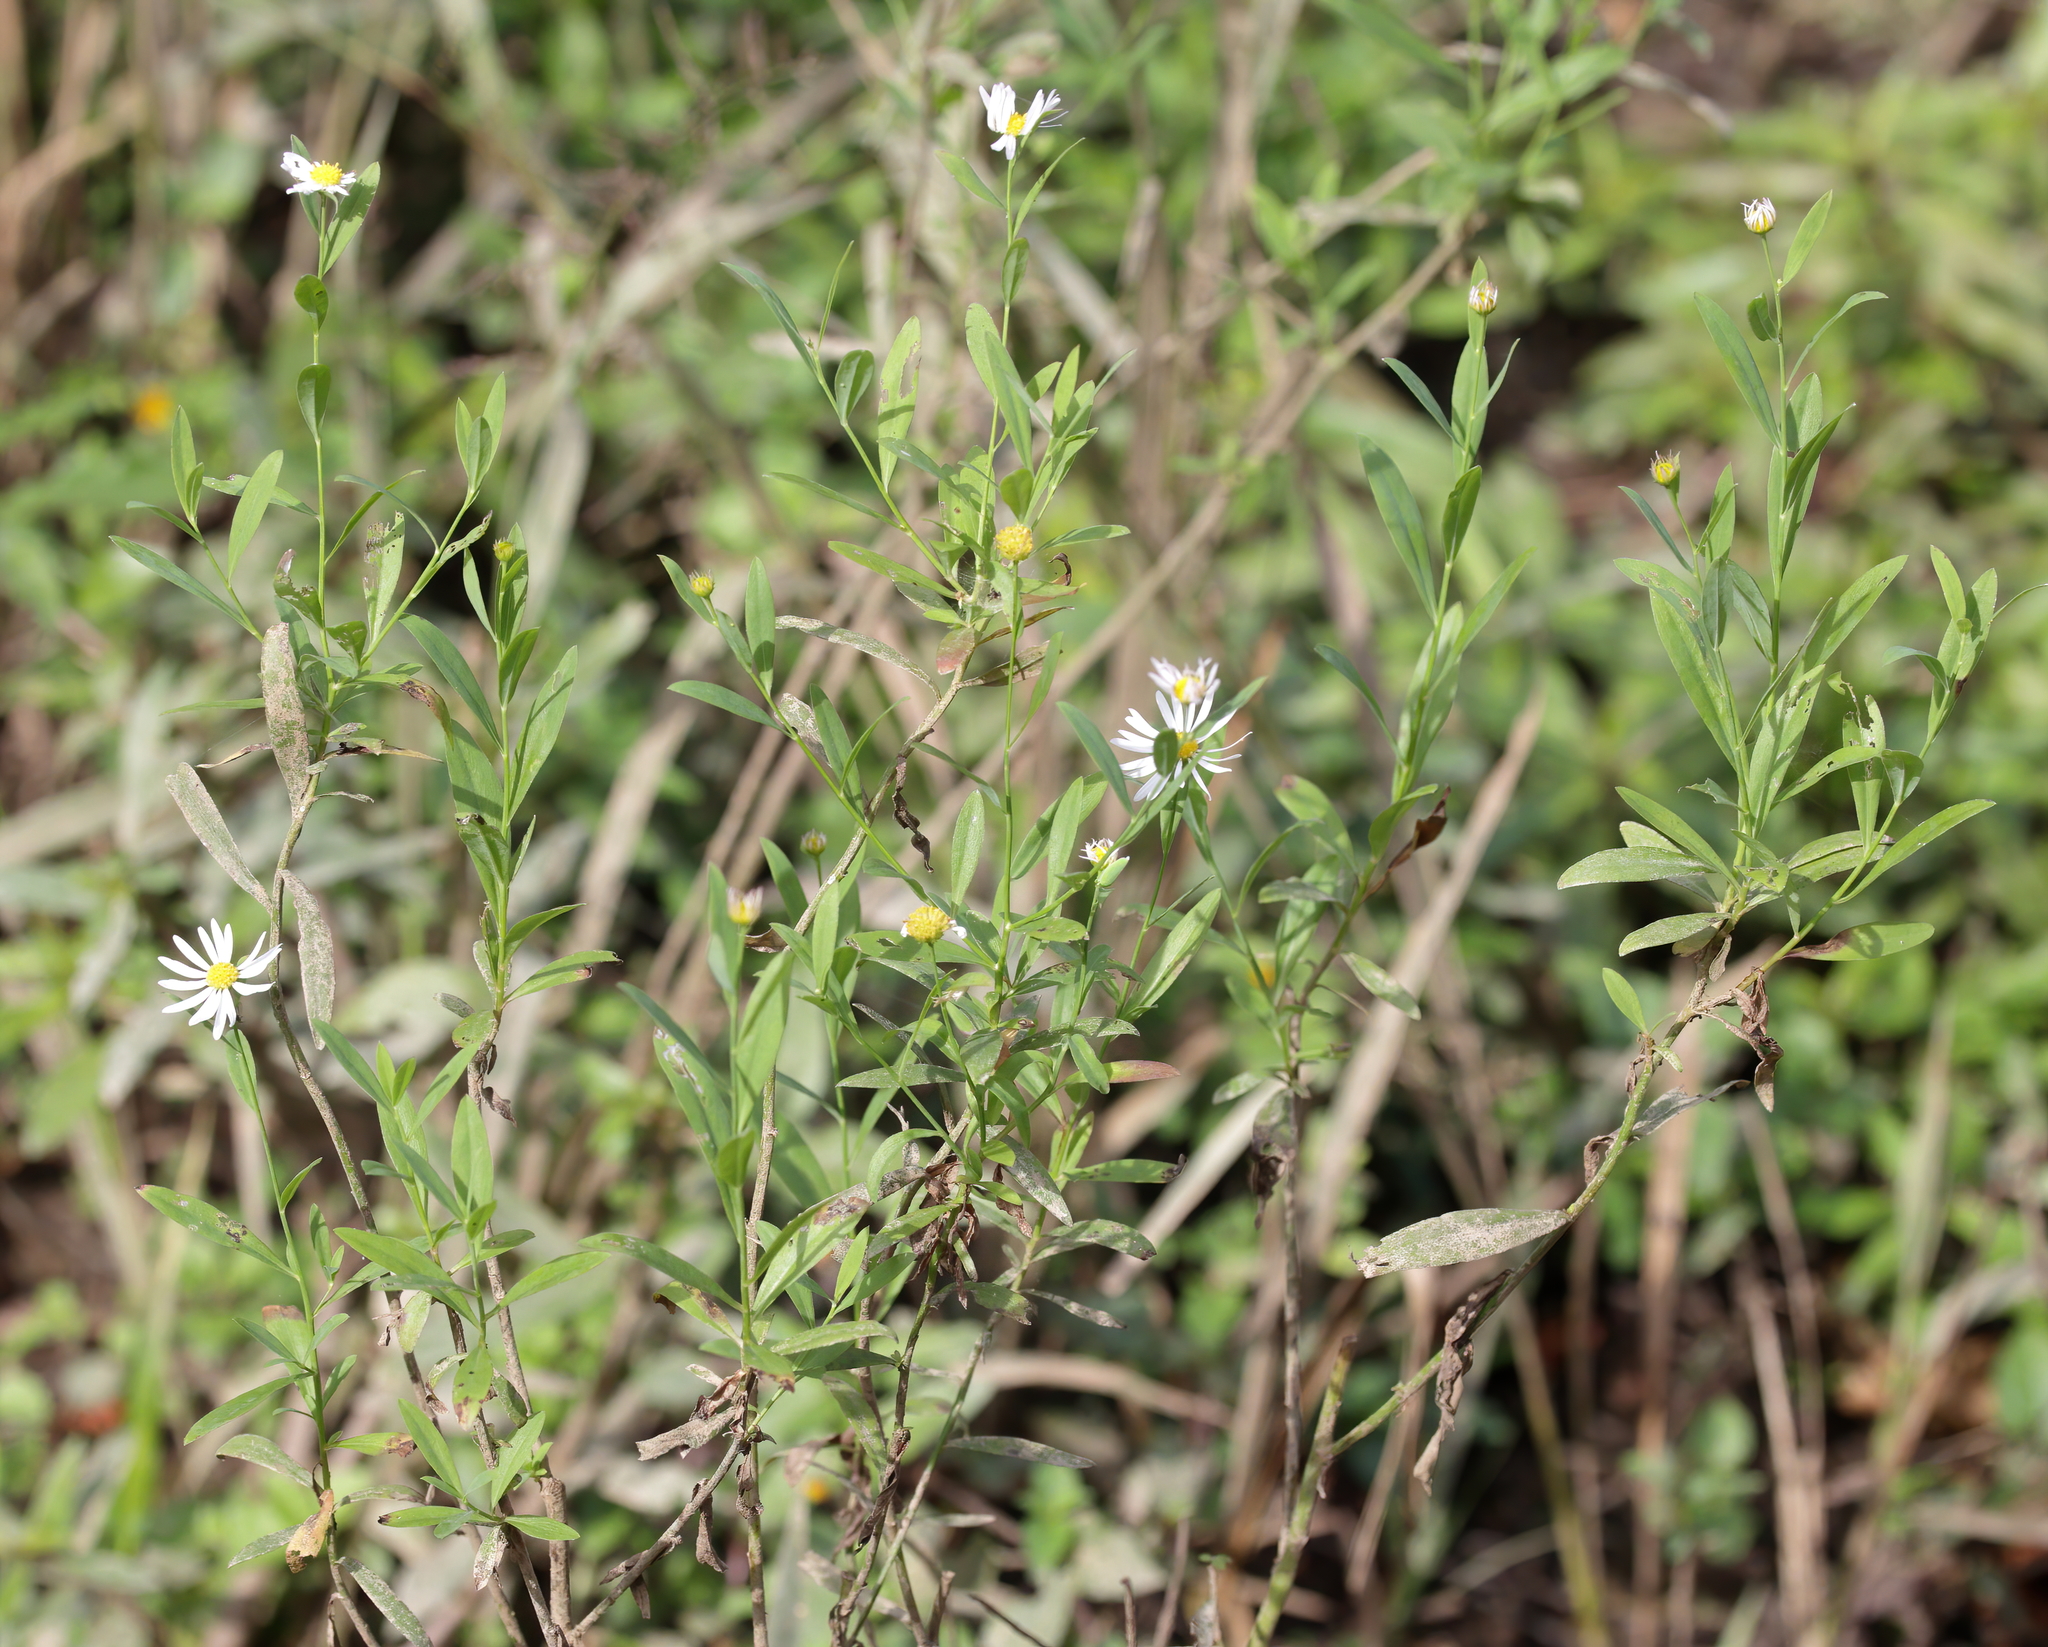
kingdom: Plantae
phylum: Tracheophyta
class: Magnoliopsida
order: Asterales
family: Asteraceae
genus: Boltonia
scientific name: Boltonia asteroides
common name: False chamomile
